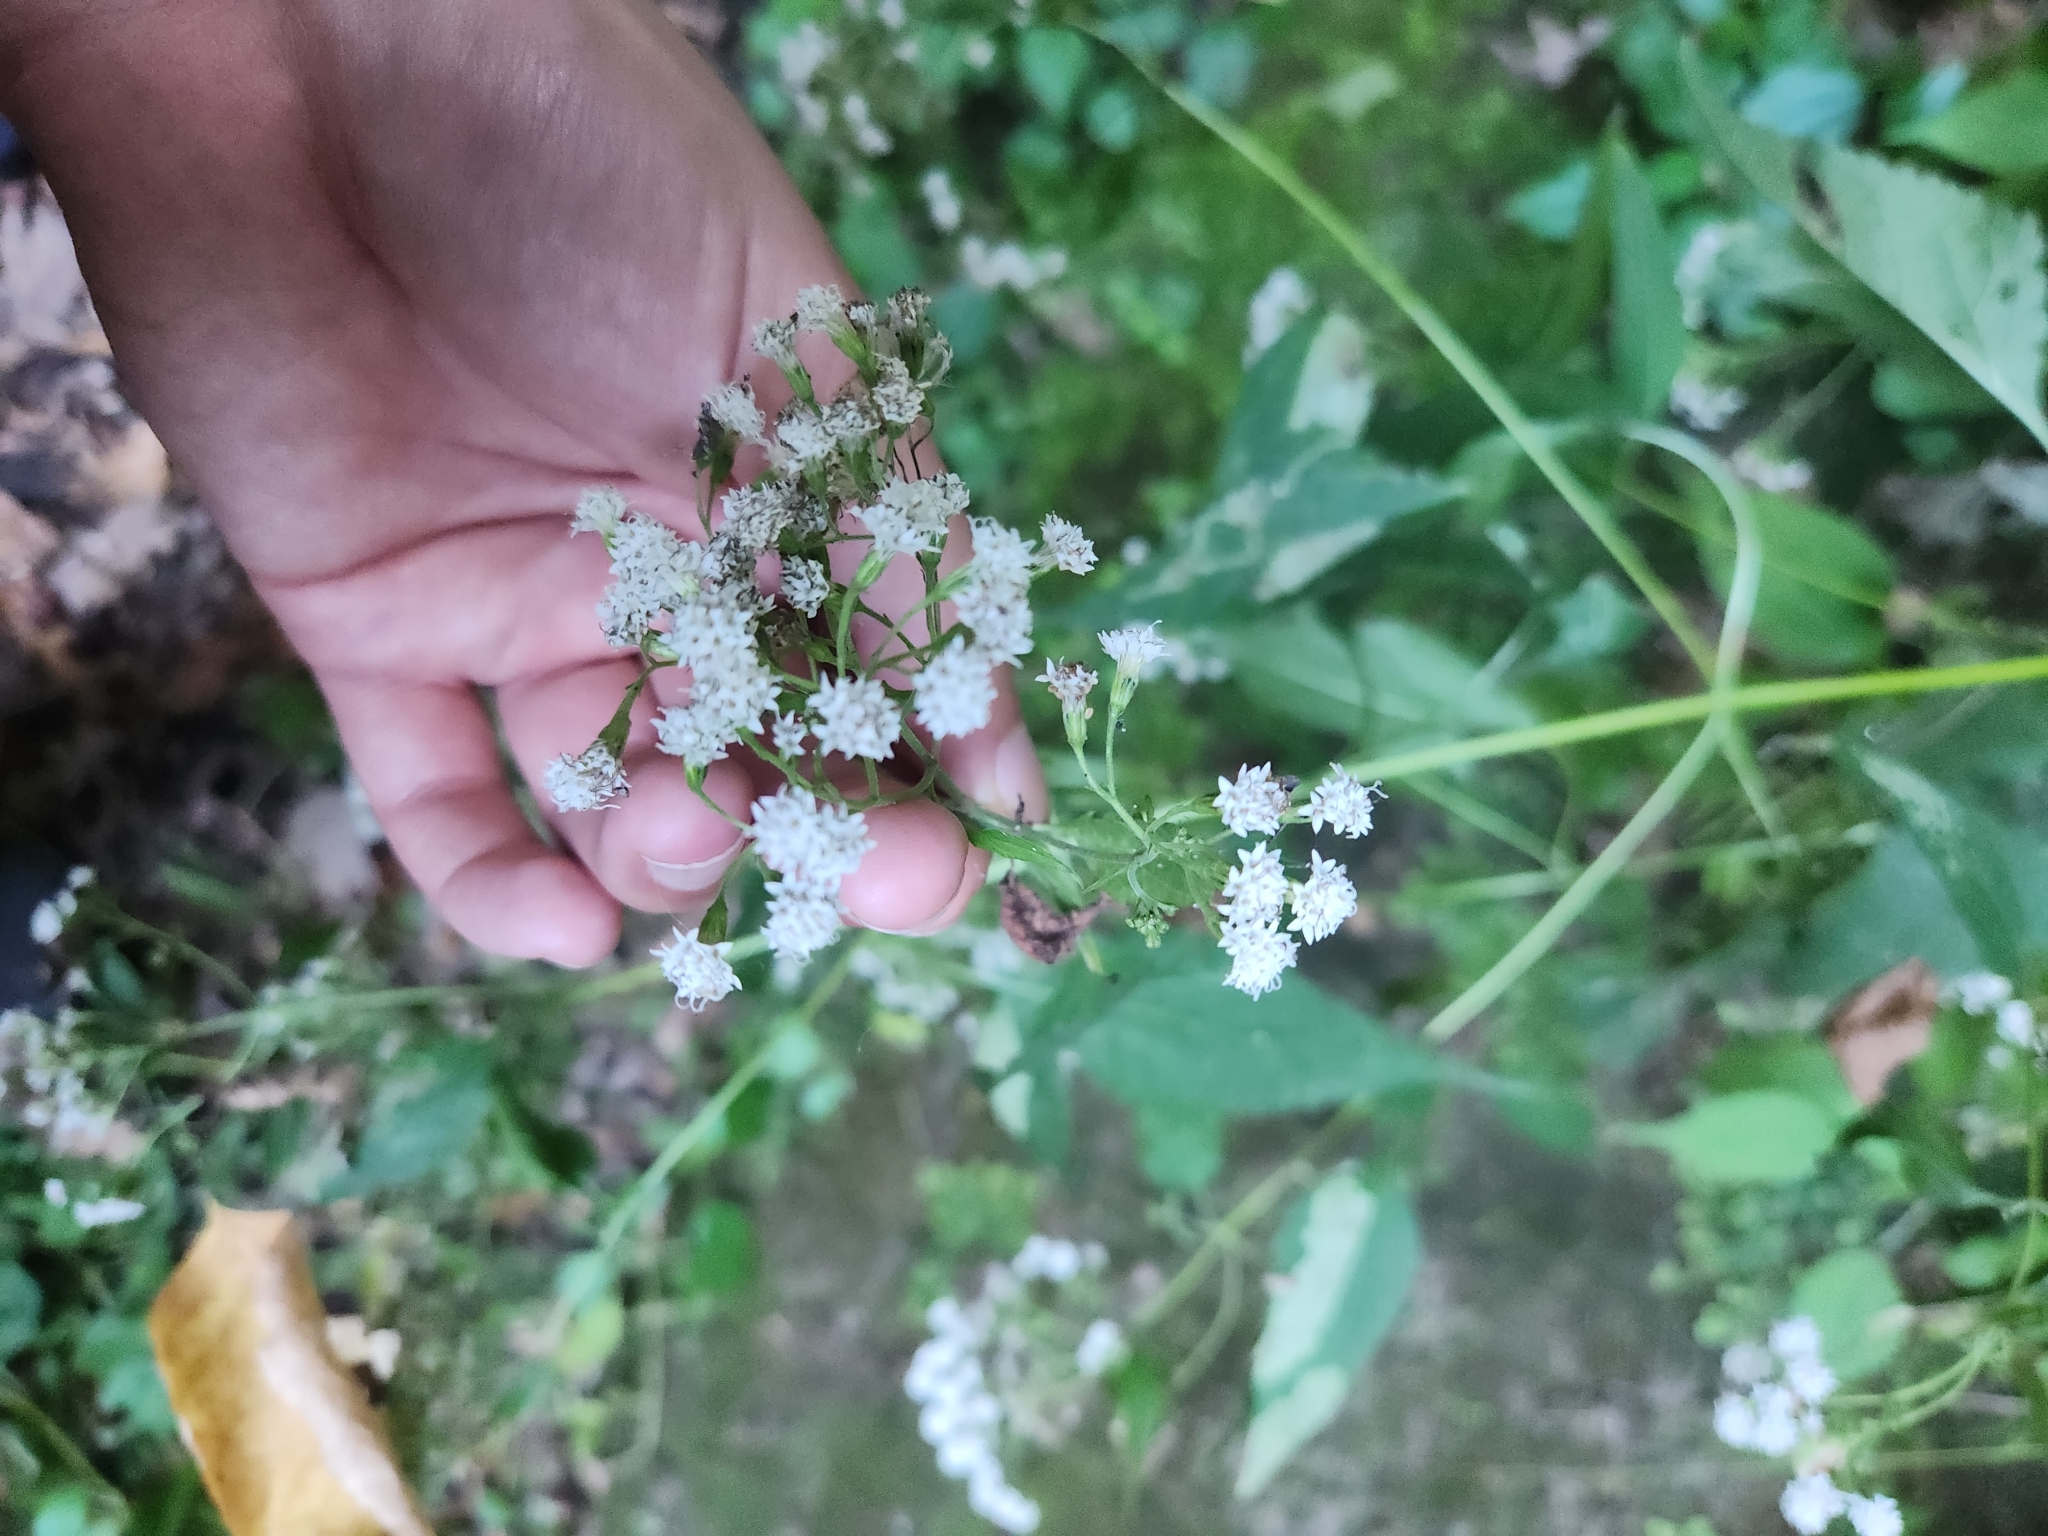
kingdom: Plantae
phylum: Tracheophyta
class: Magnoliopsida
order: Asterales
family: Asteraceae
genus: Ageratina
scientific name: Ageratina altissima
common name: White snakeroot
